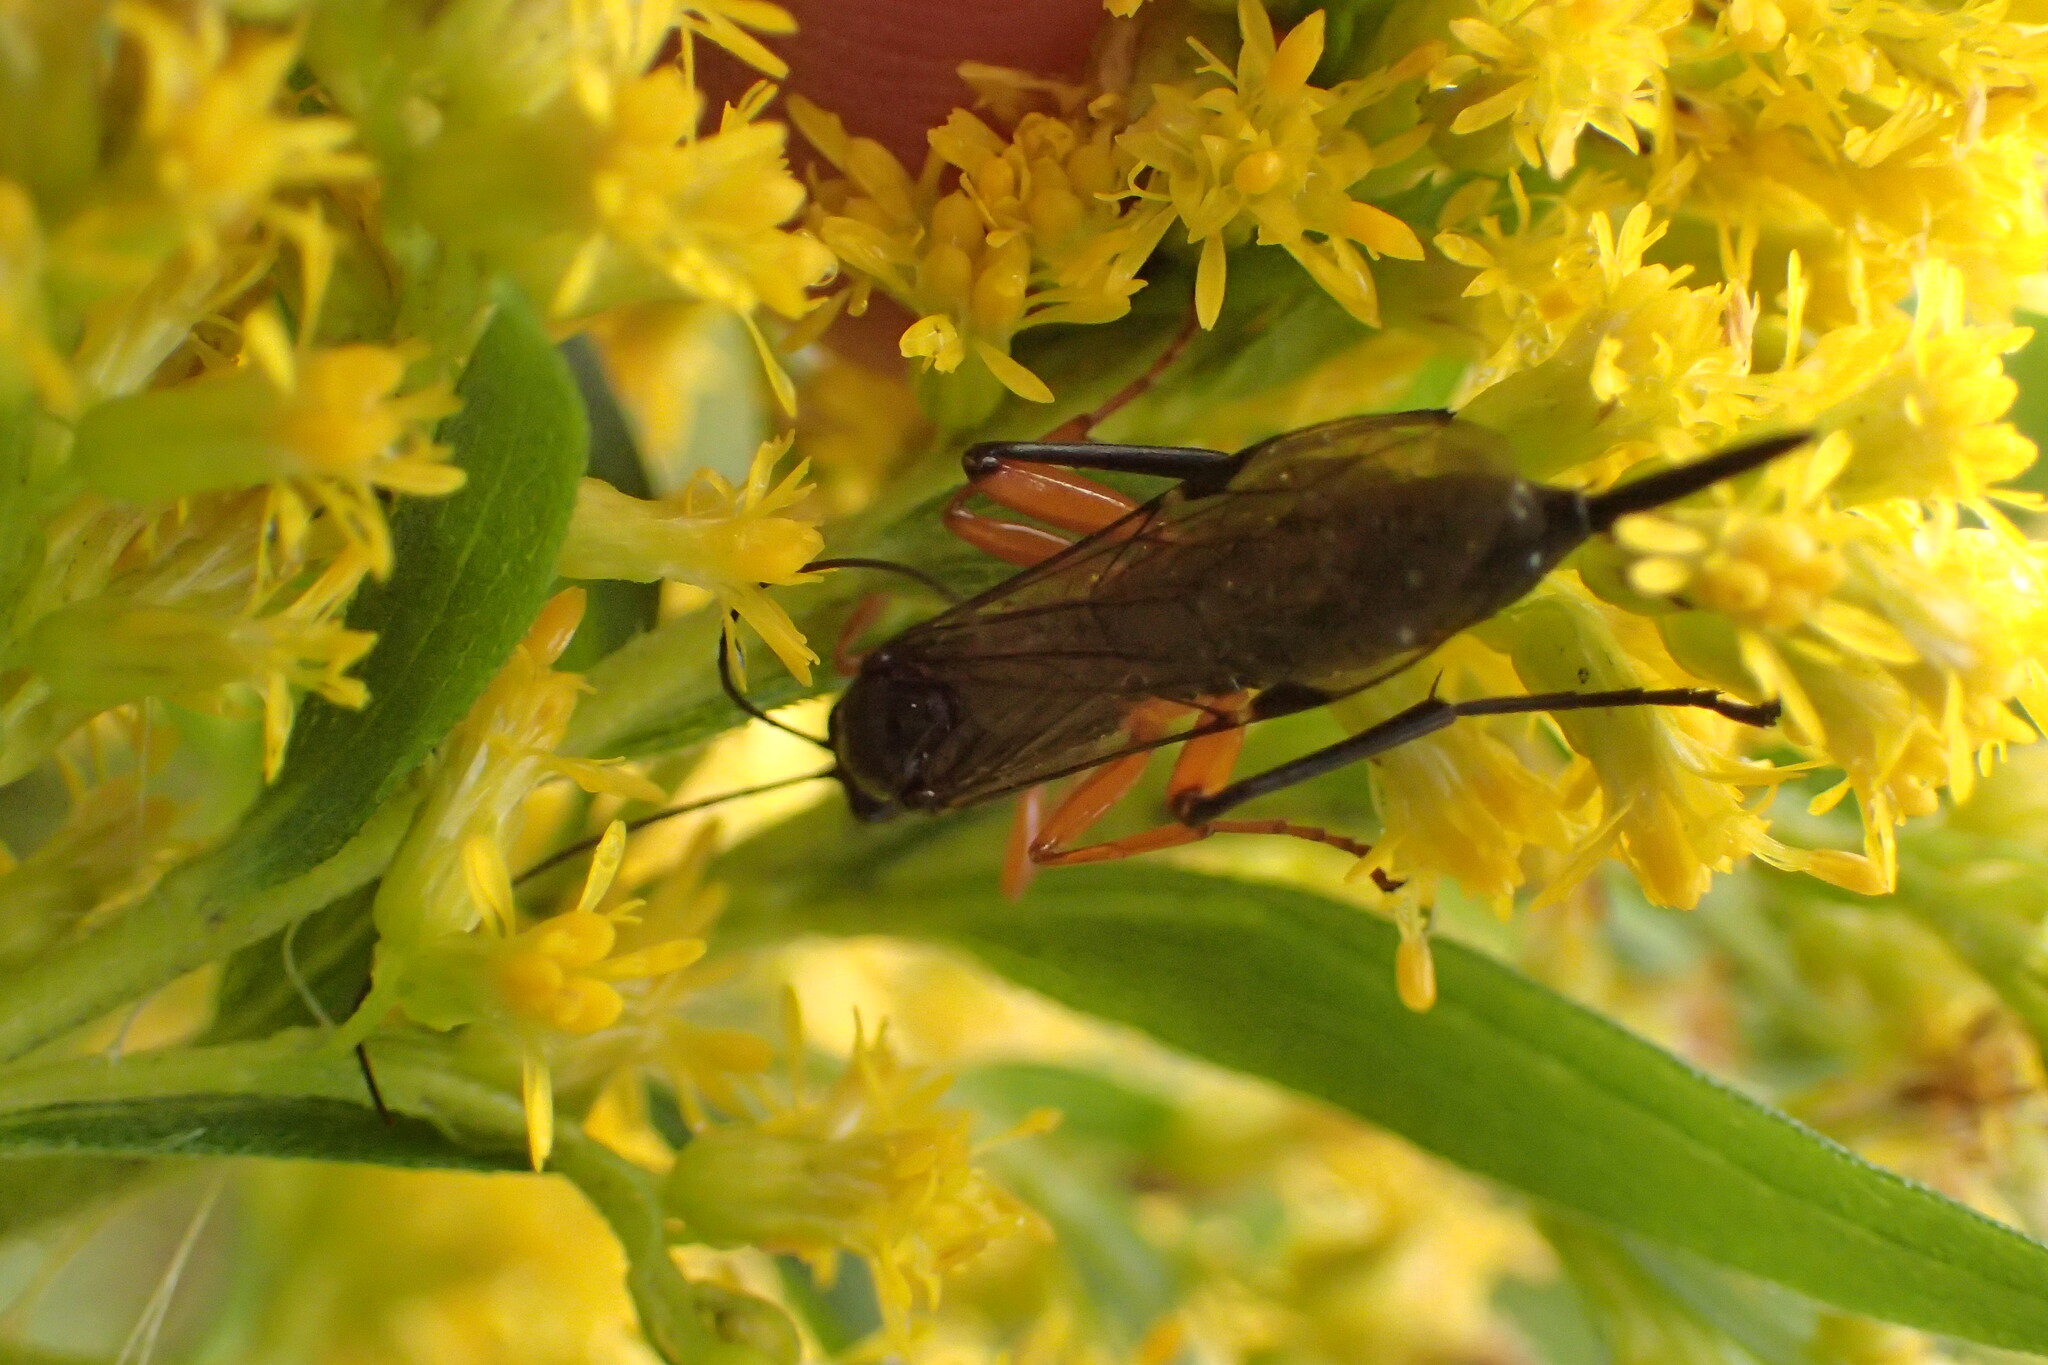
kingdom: Animalia
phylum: Arthropoda
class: Insecta
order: Hymenoptera
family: Ichneumonidae
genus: Pimpla
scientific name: Pimpla pedalis
